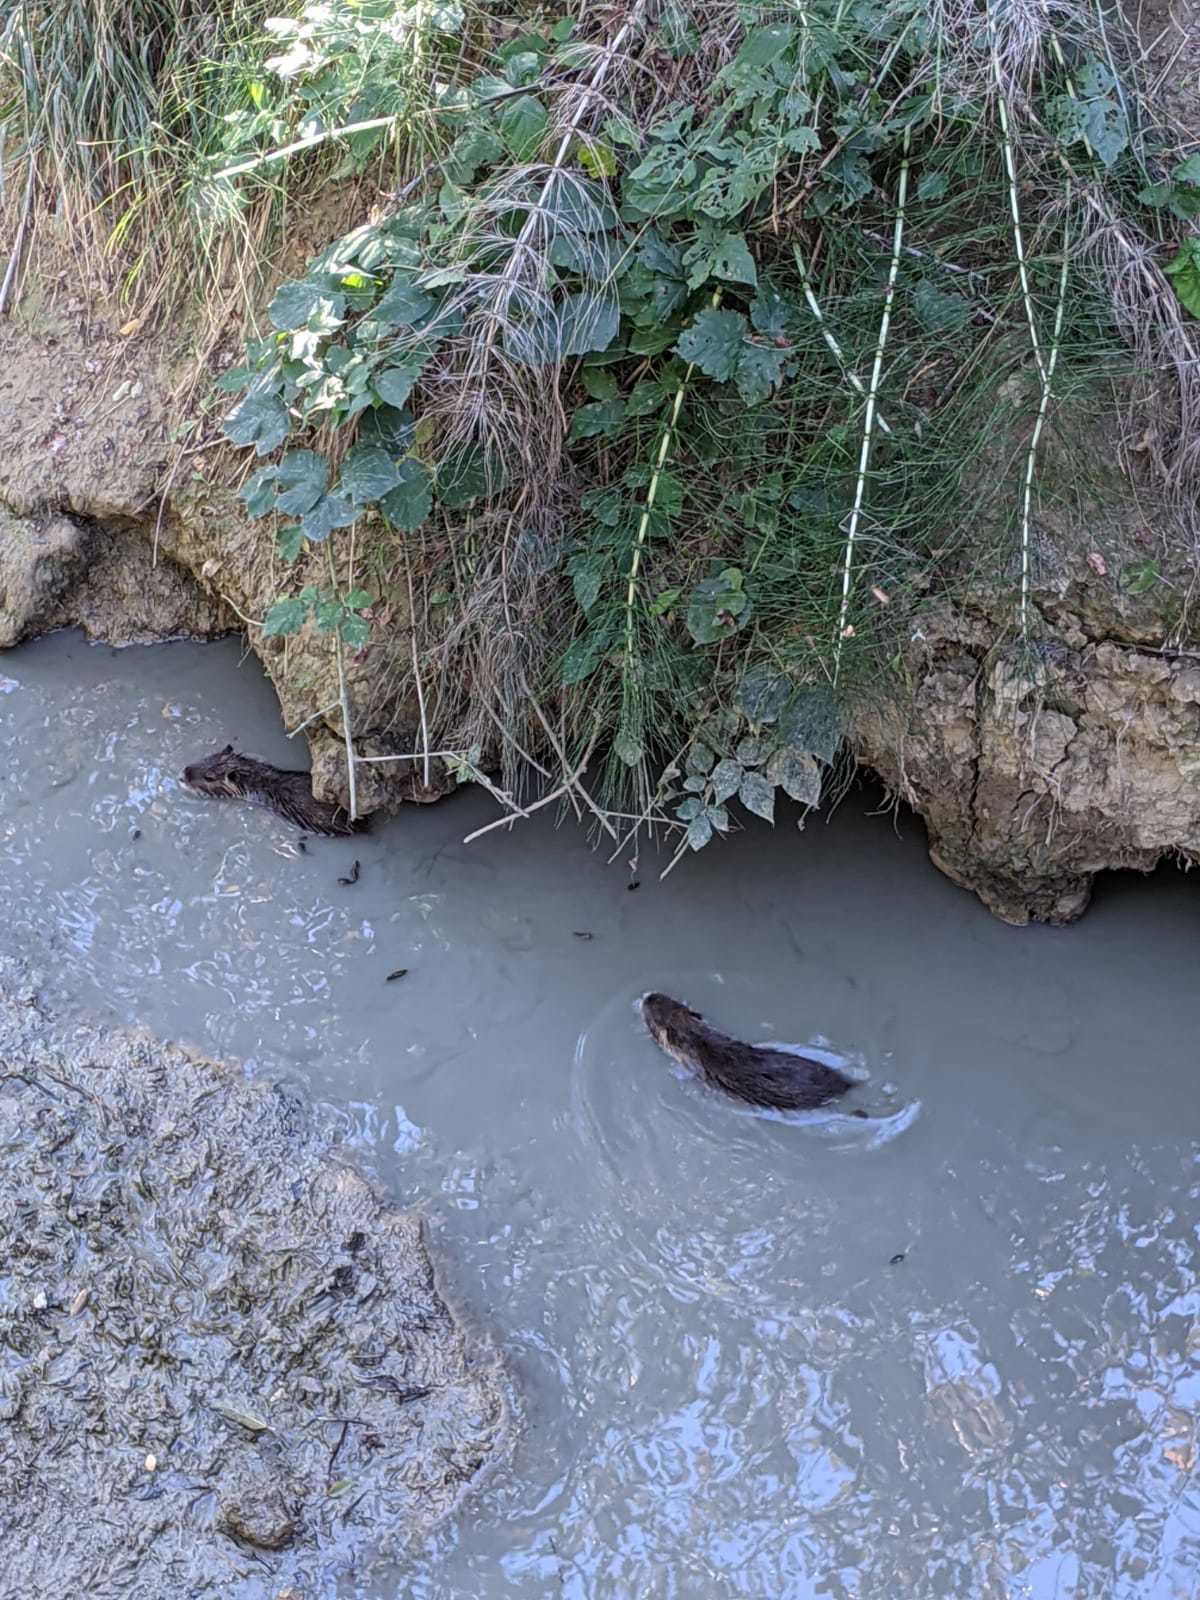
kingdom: Animalia
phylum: Chordata
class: Mammalia
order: Rodentia
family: Myocastoridae
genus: Myocastor
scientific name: Myocastor coypus
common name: Coypu
